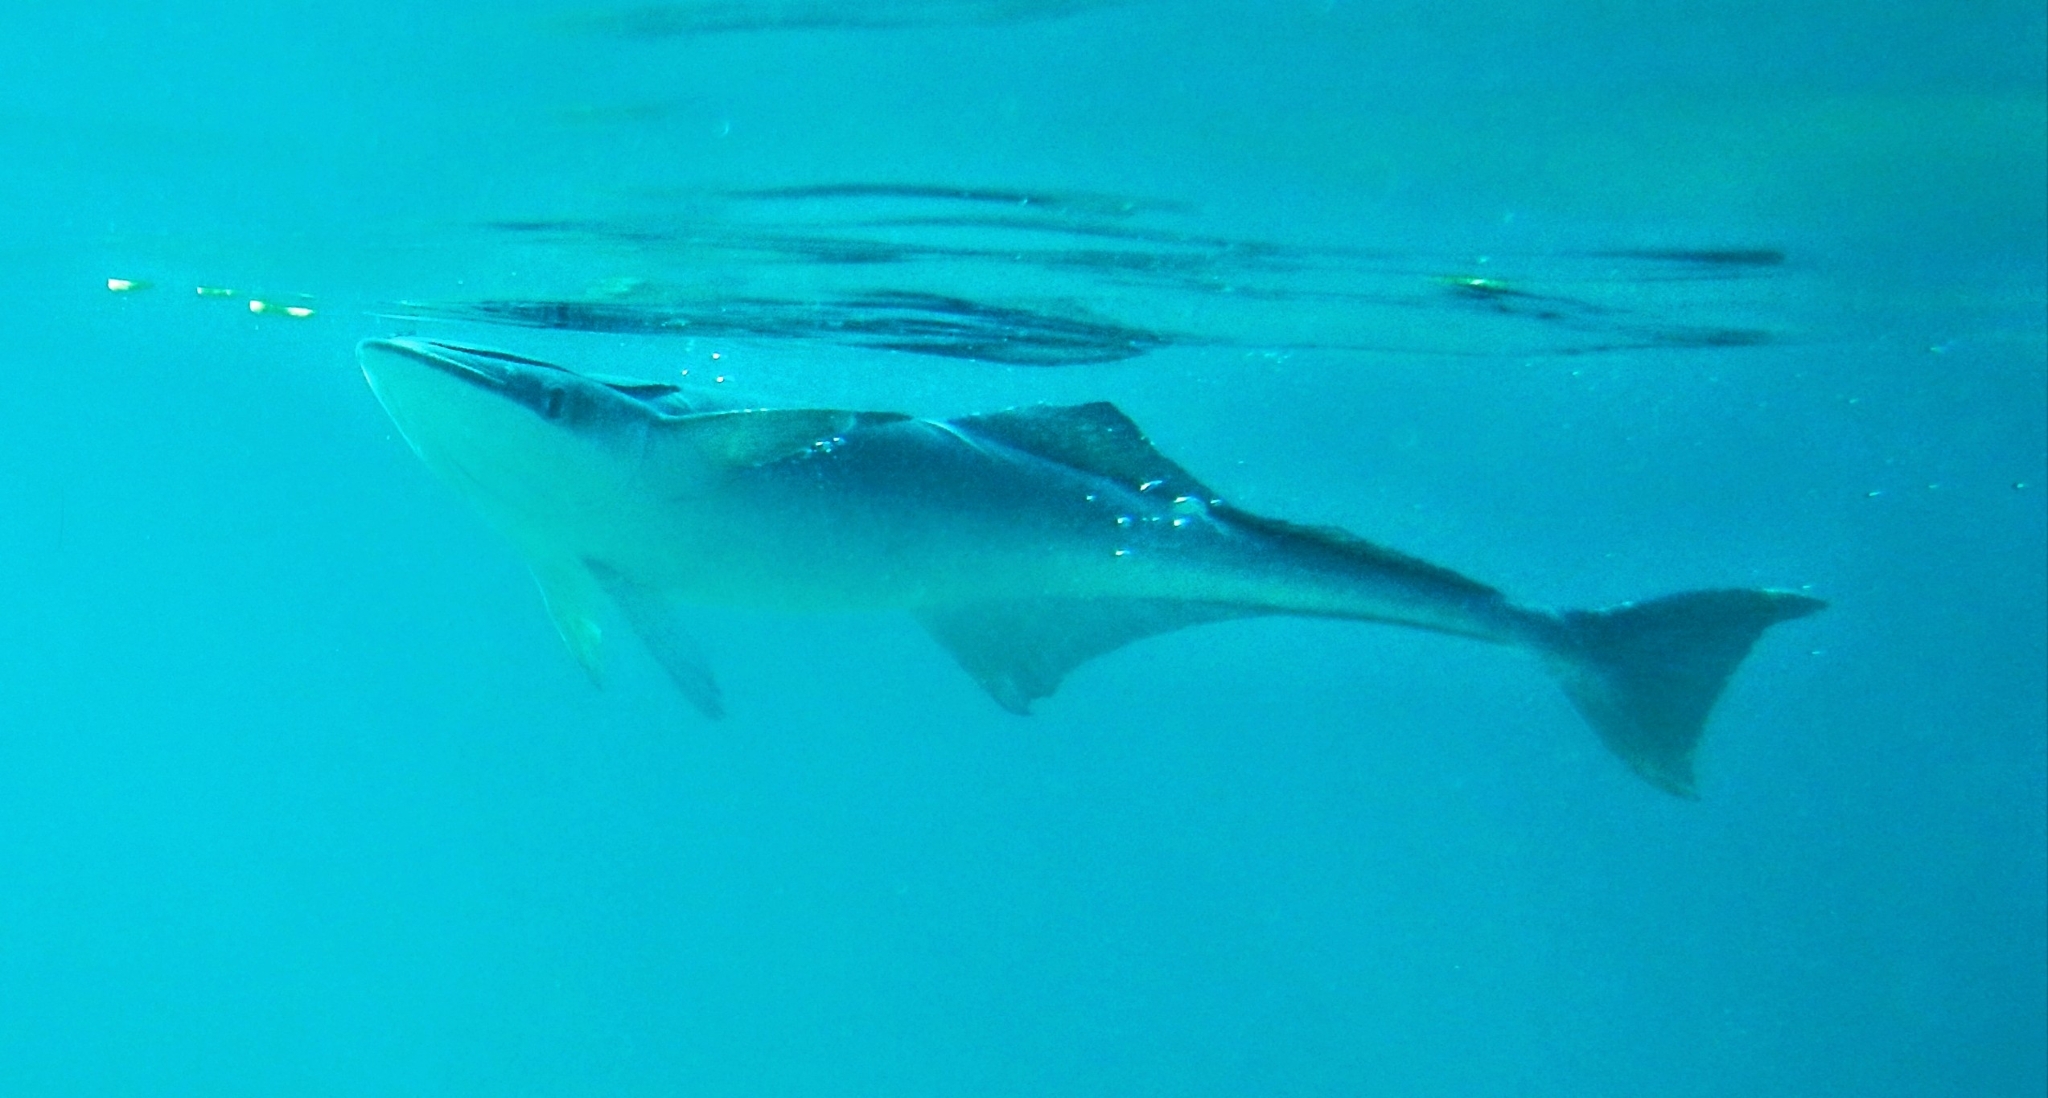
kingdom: Animalia
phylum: Chordata
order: Perciformes
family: Echeneidae
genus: Echeneis
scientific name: Echeneis naucrates
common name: Sharksucker
